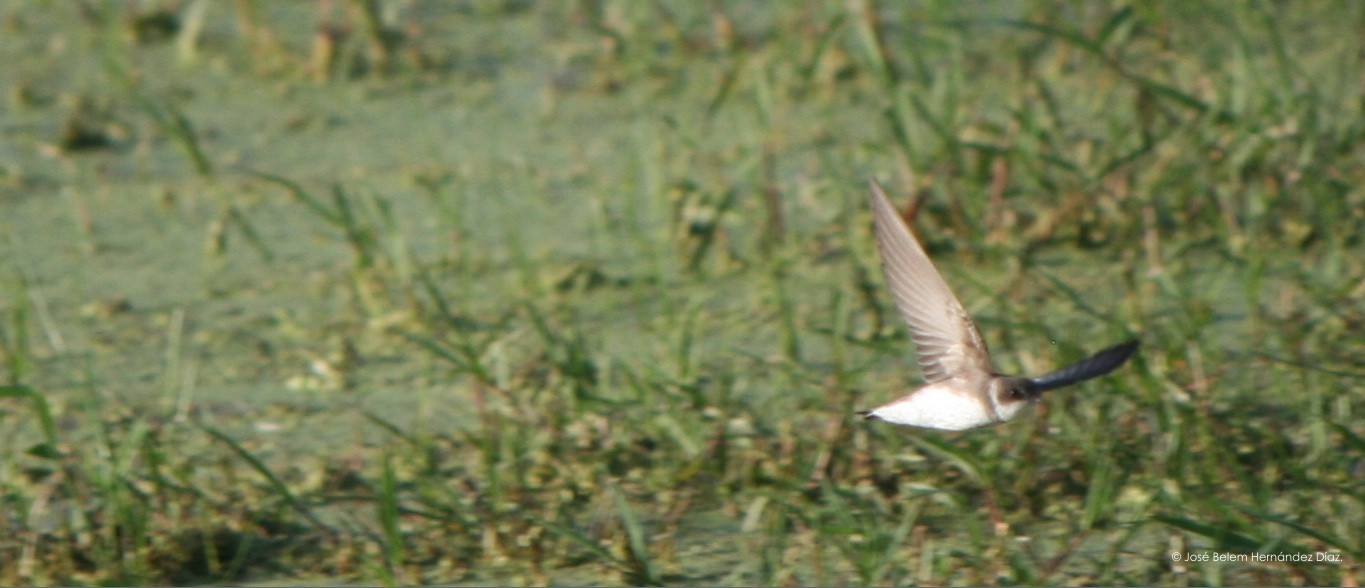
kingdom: Animalia
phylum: Chordata
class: Aves
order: Passeriformes
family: Hirundinidae
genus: Riparia
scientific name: Riparia riparia
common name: Sand martin
